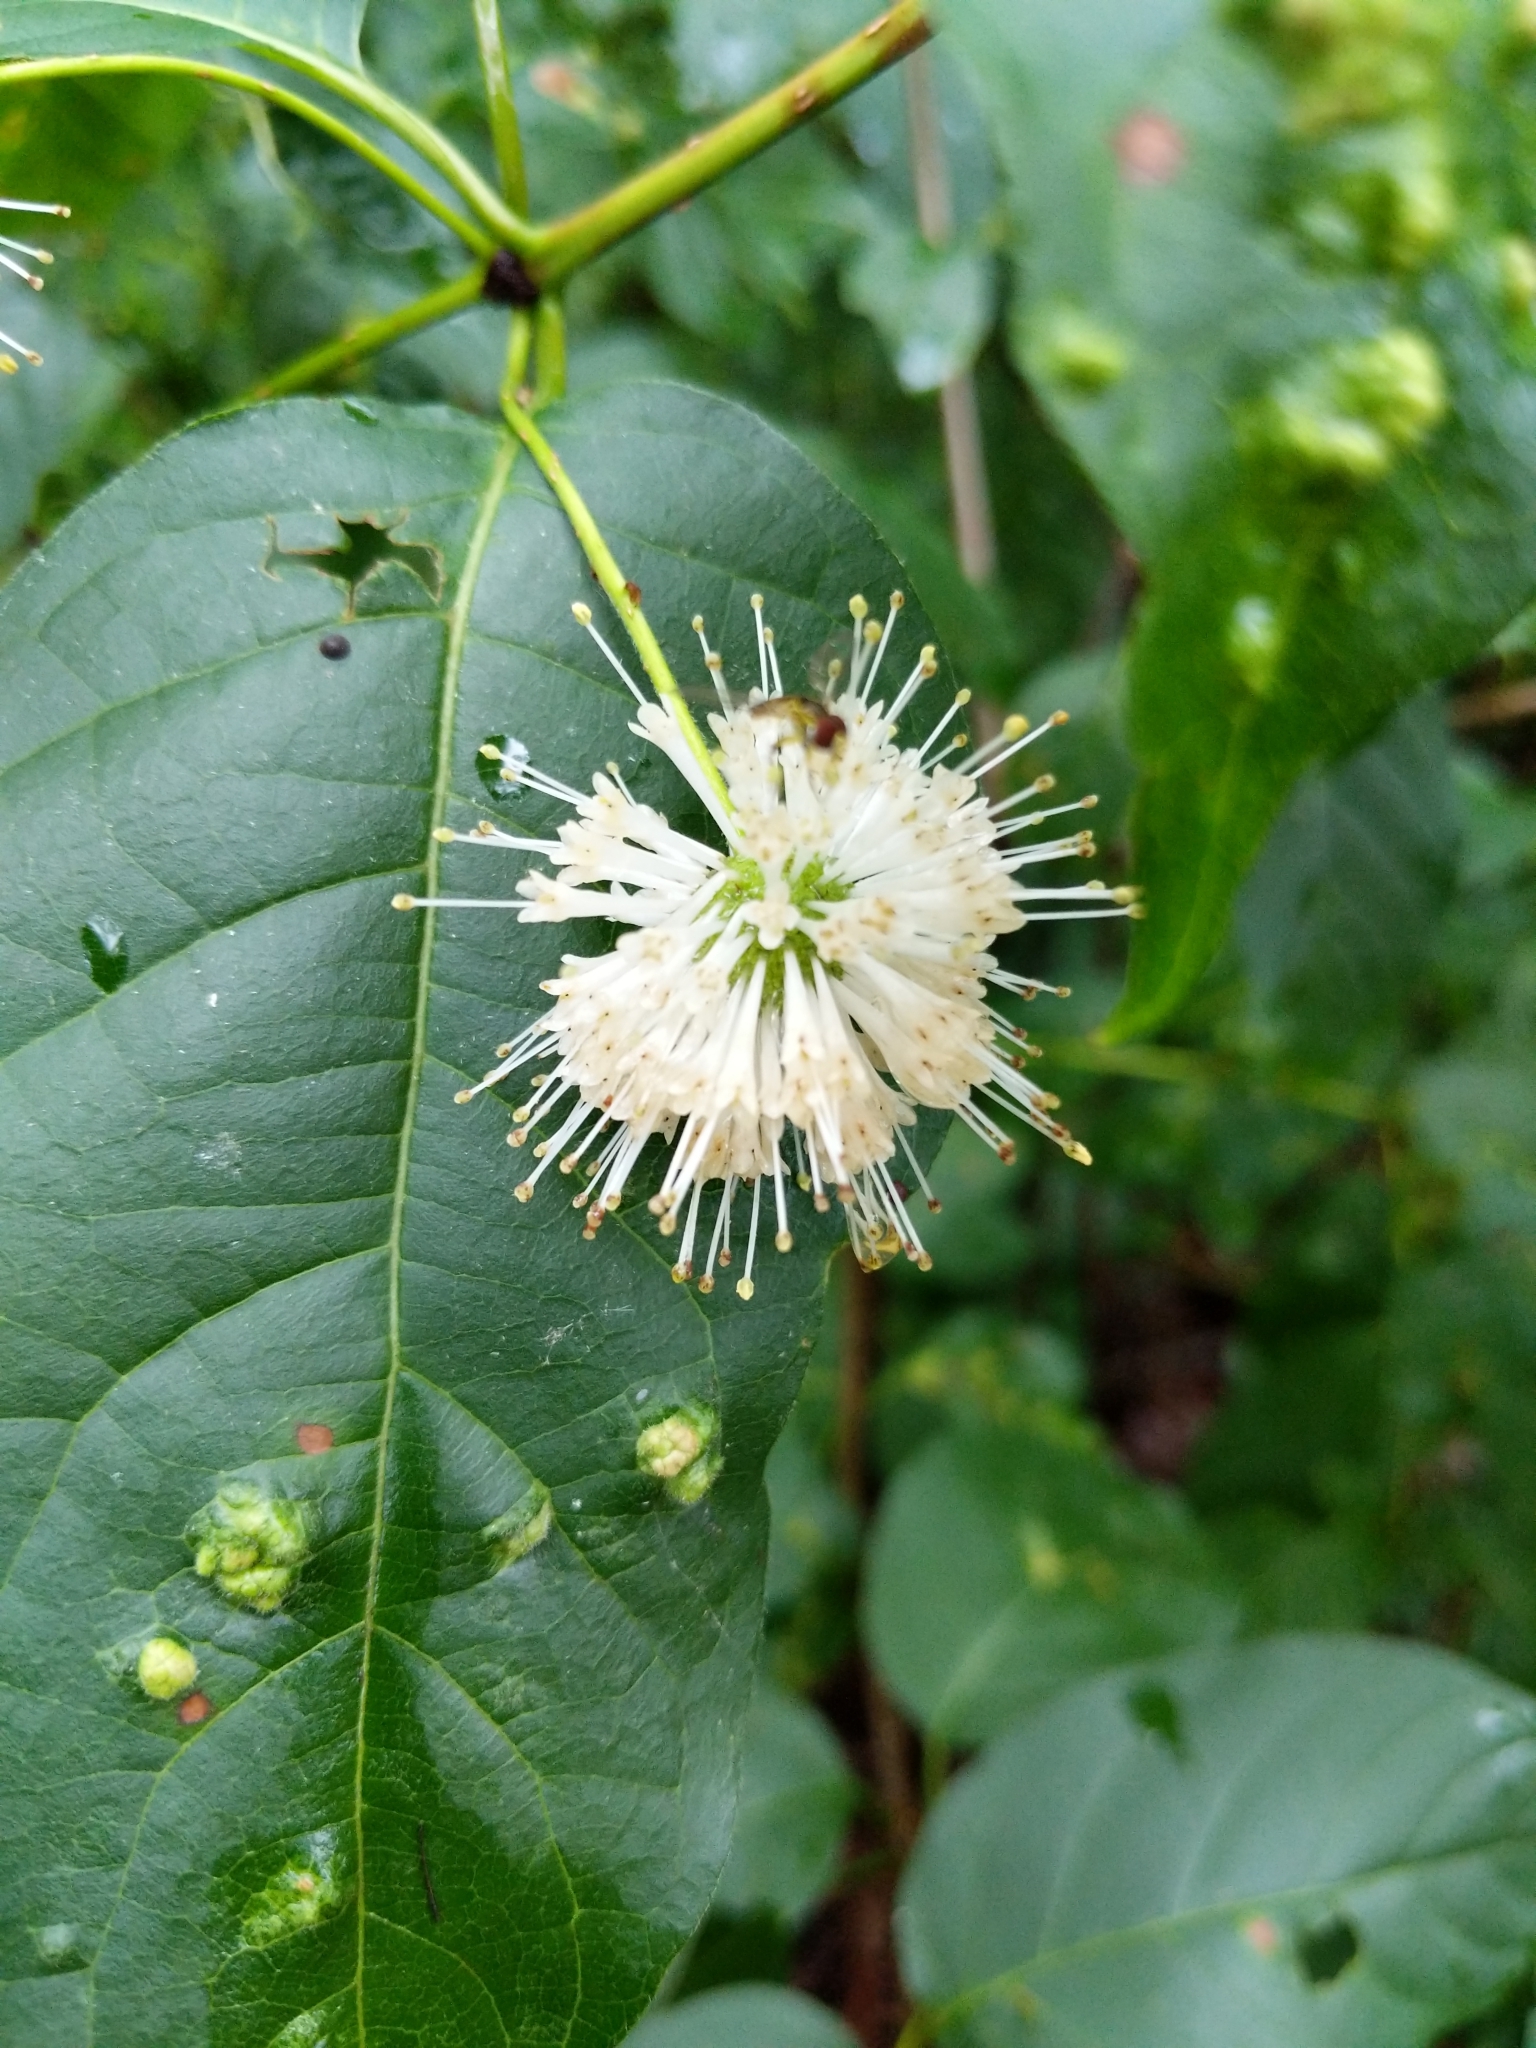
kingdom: Plantae
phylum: Tracheophyta
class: Magnoliopsida
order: Gentianales
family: Rubiaceae
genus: Cephalanthus
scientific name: Cephalanthus occidentalis
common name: Button-willow
